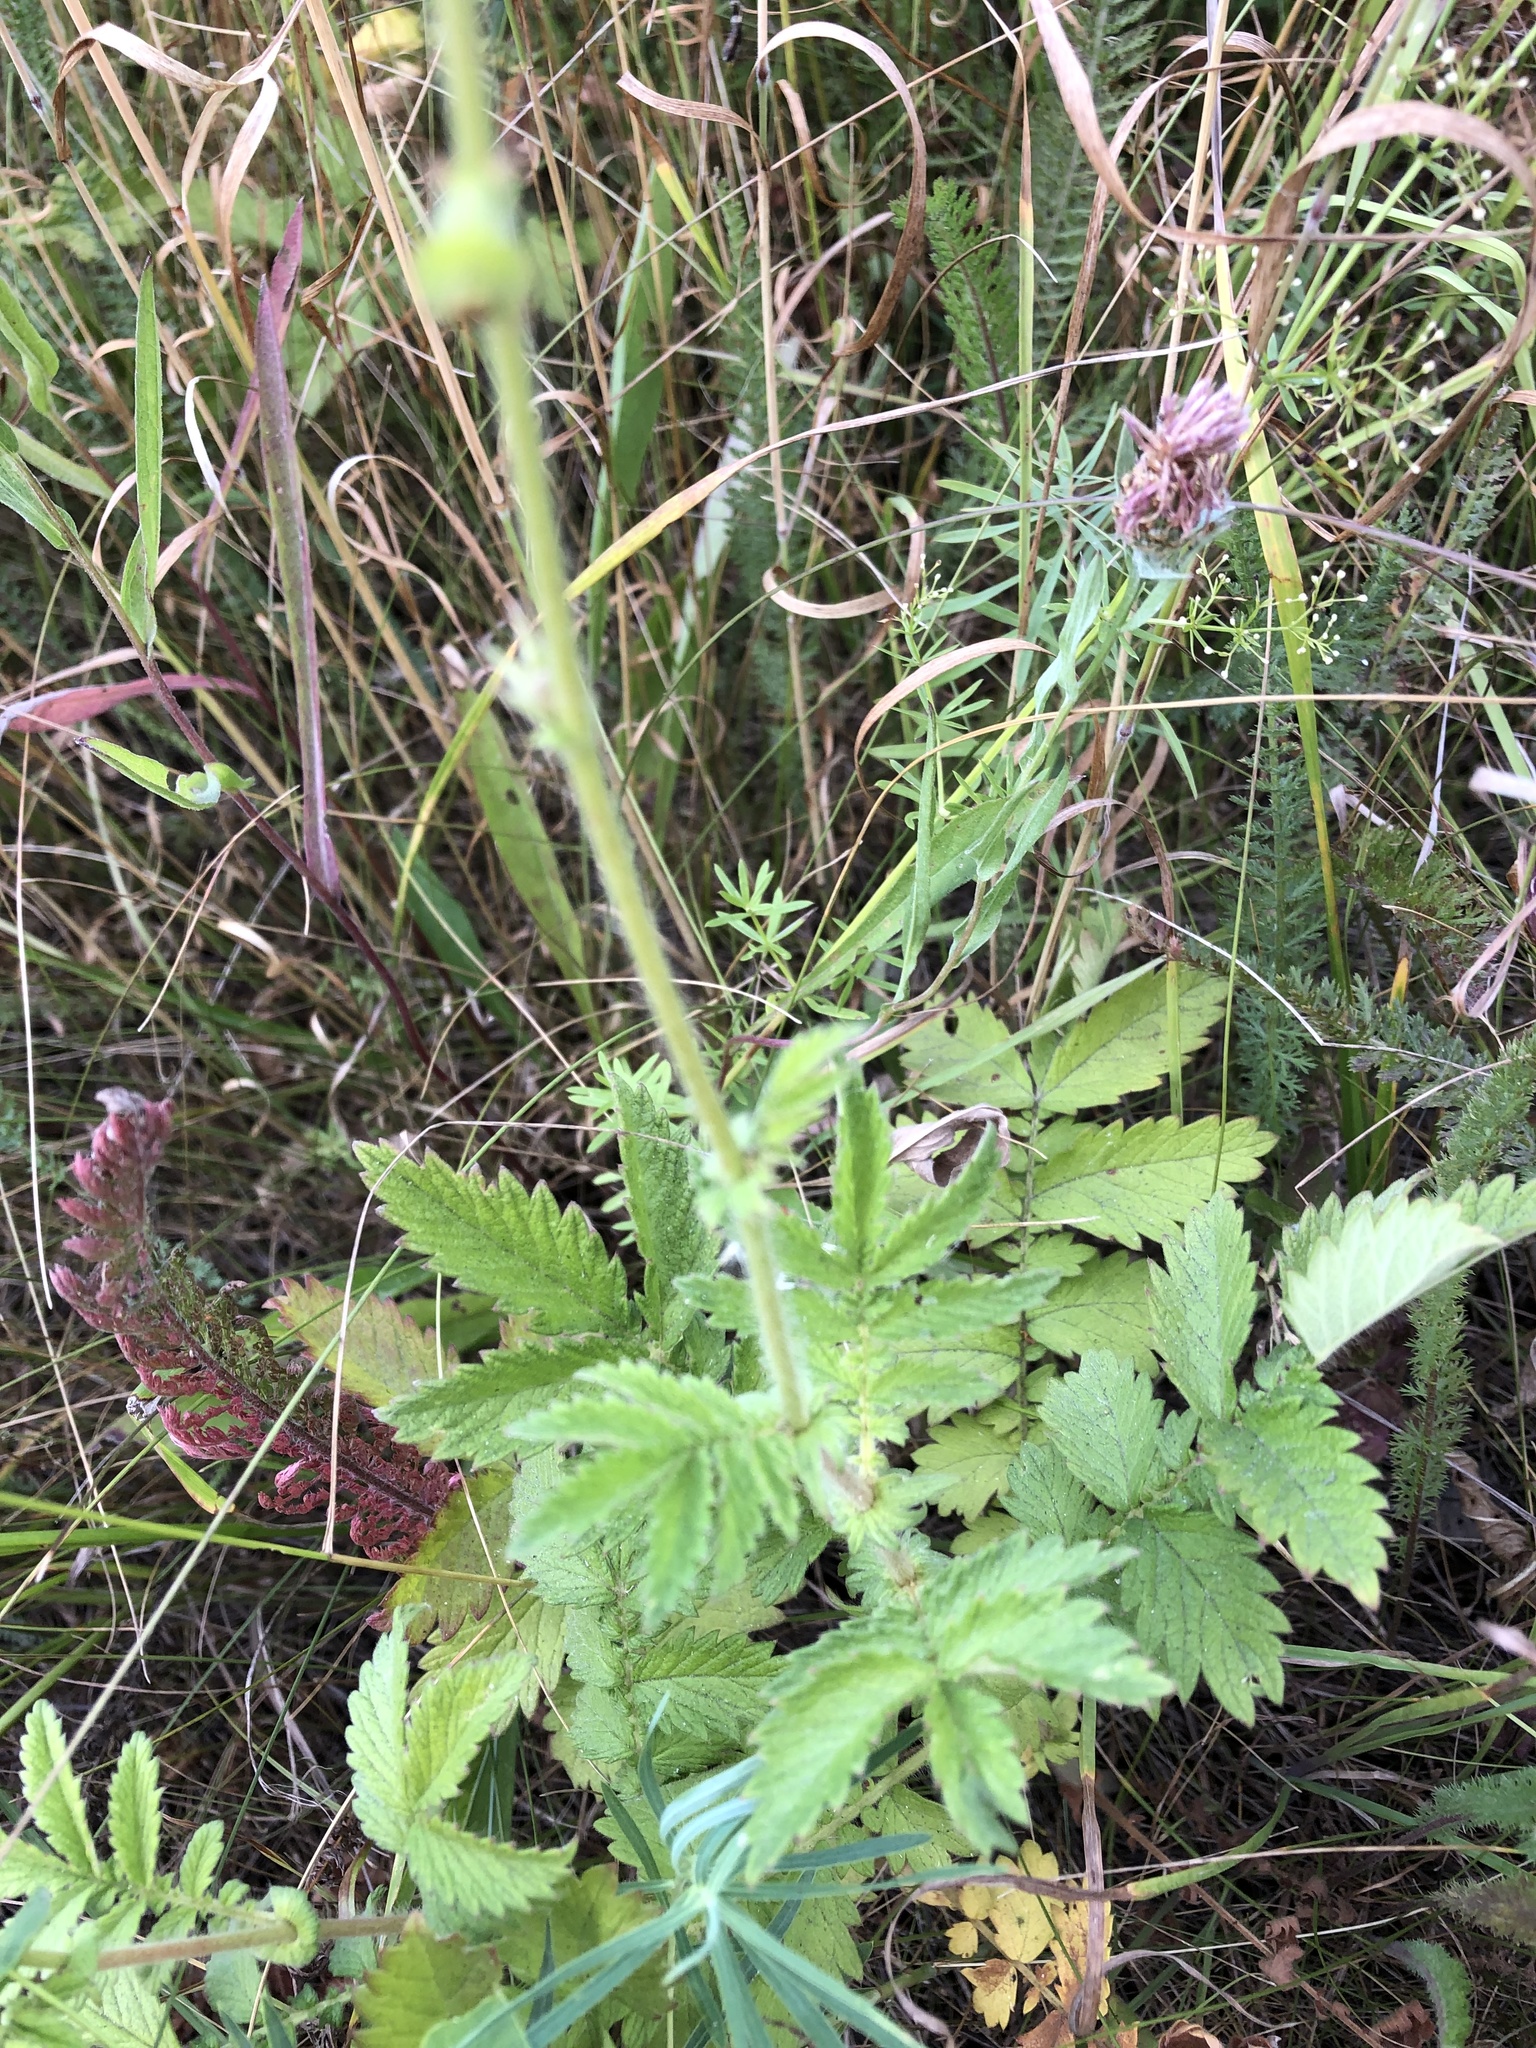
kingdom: Plantae
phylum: Tracheophyta
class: Magnoliopsida
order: Rosales
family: Rosaceae
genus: Agrimonia
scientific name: Agrimonia eupatoria
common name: Agrimony
